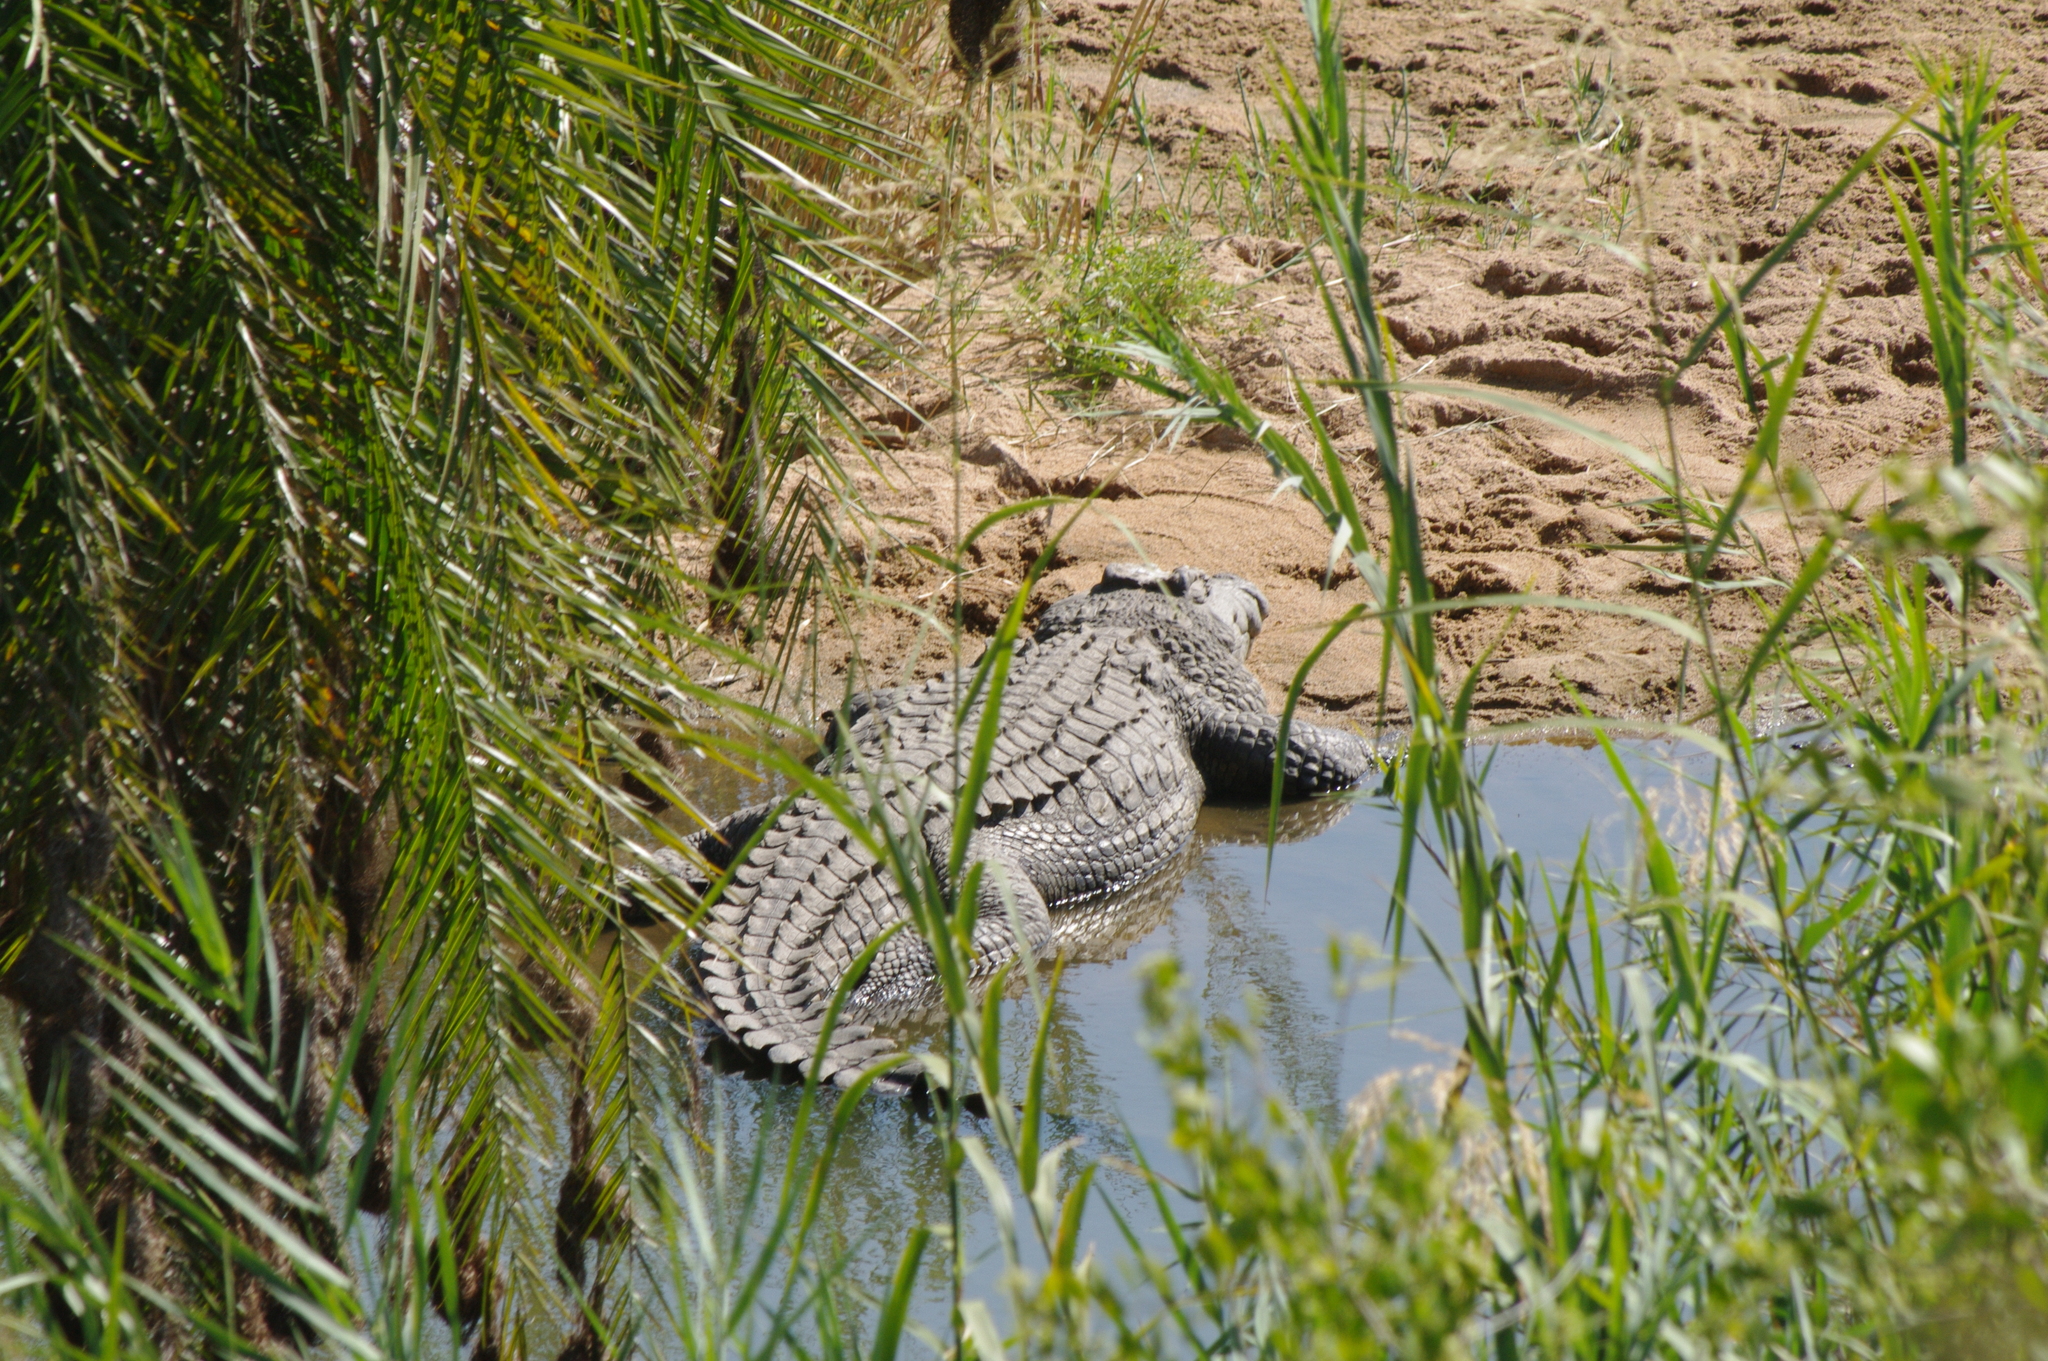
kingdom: Animalia
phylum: Chordata
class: Crocodylia
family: Crocodylidae
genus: Crocodylus
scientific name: Crocodylus niloticus
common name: Nile crocodile
